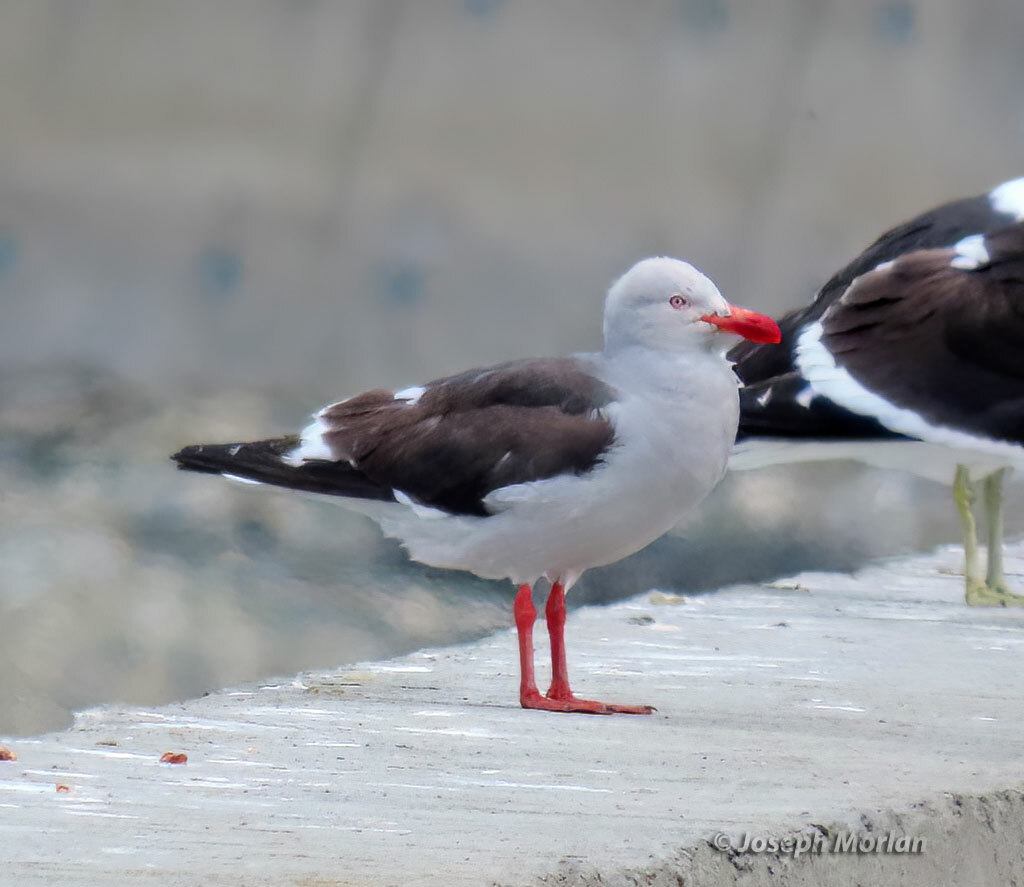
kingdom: Animalia
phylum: Chordata
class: Aves
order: Charadriiformes
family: Laridae
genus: Leucophaeus
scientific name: Leucophaeus scoresbii
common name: Dolphin gull
